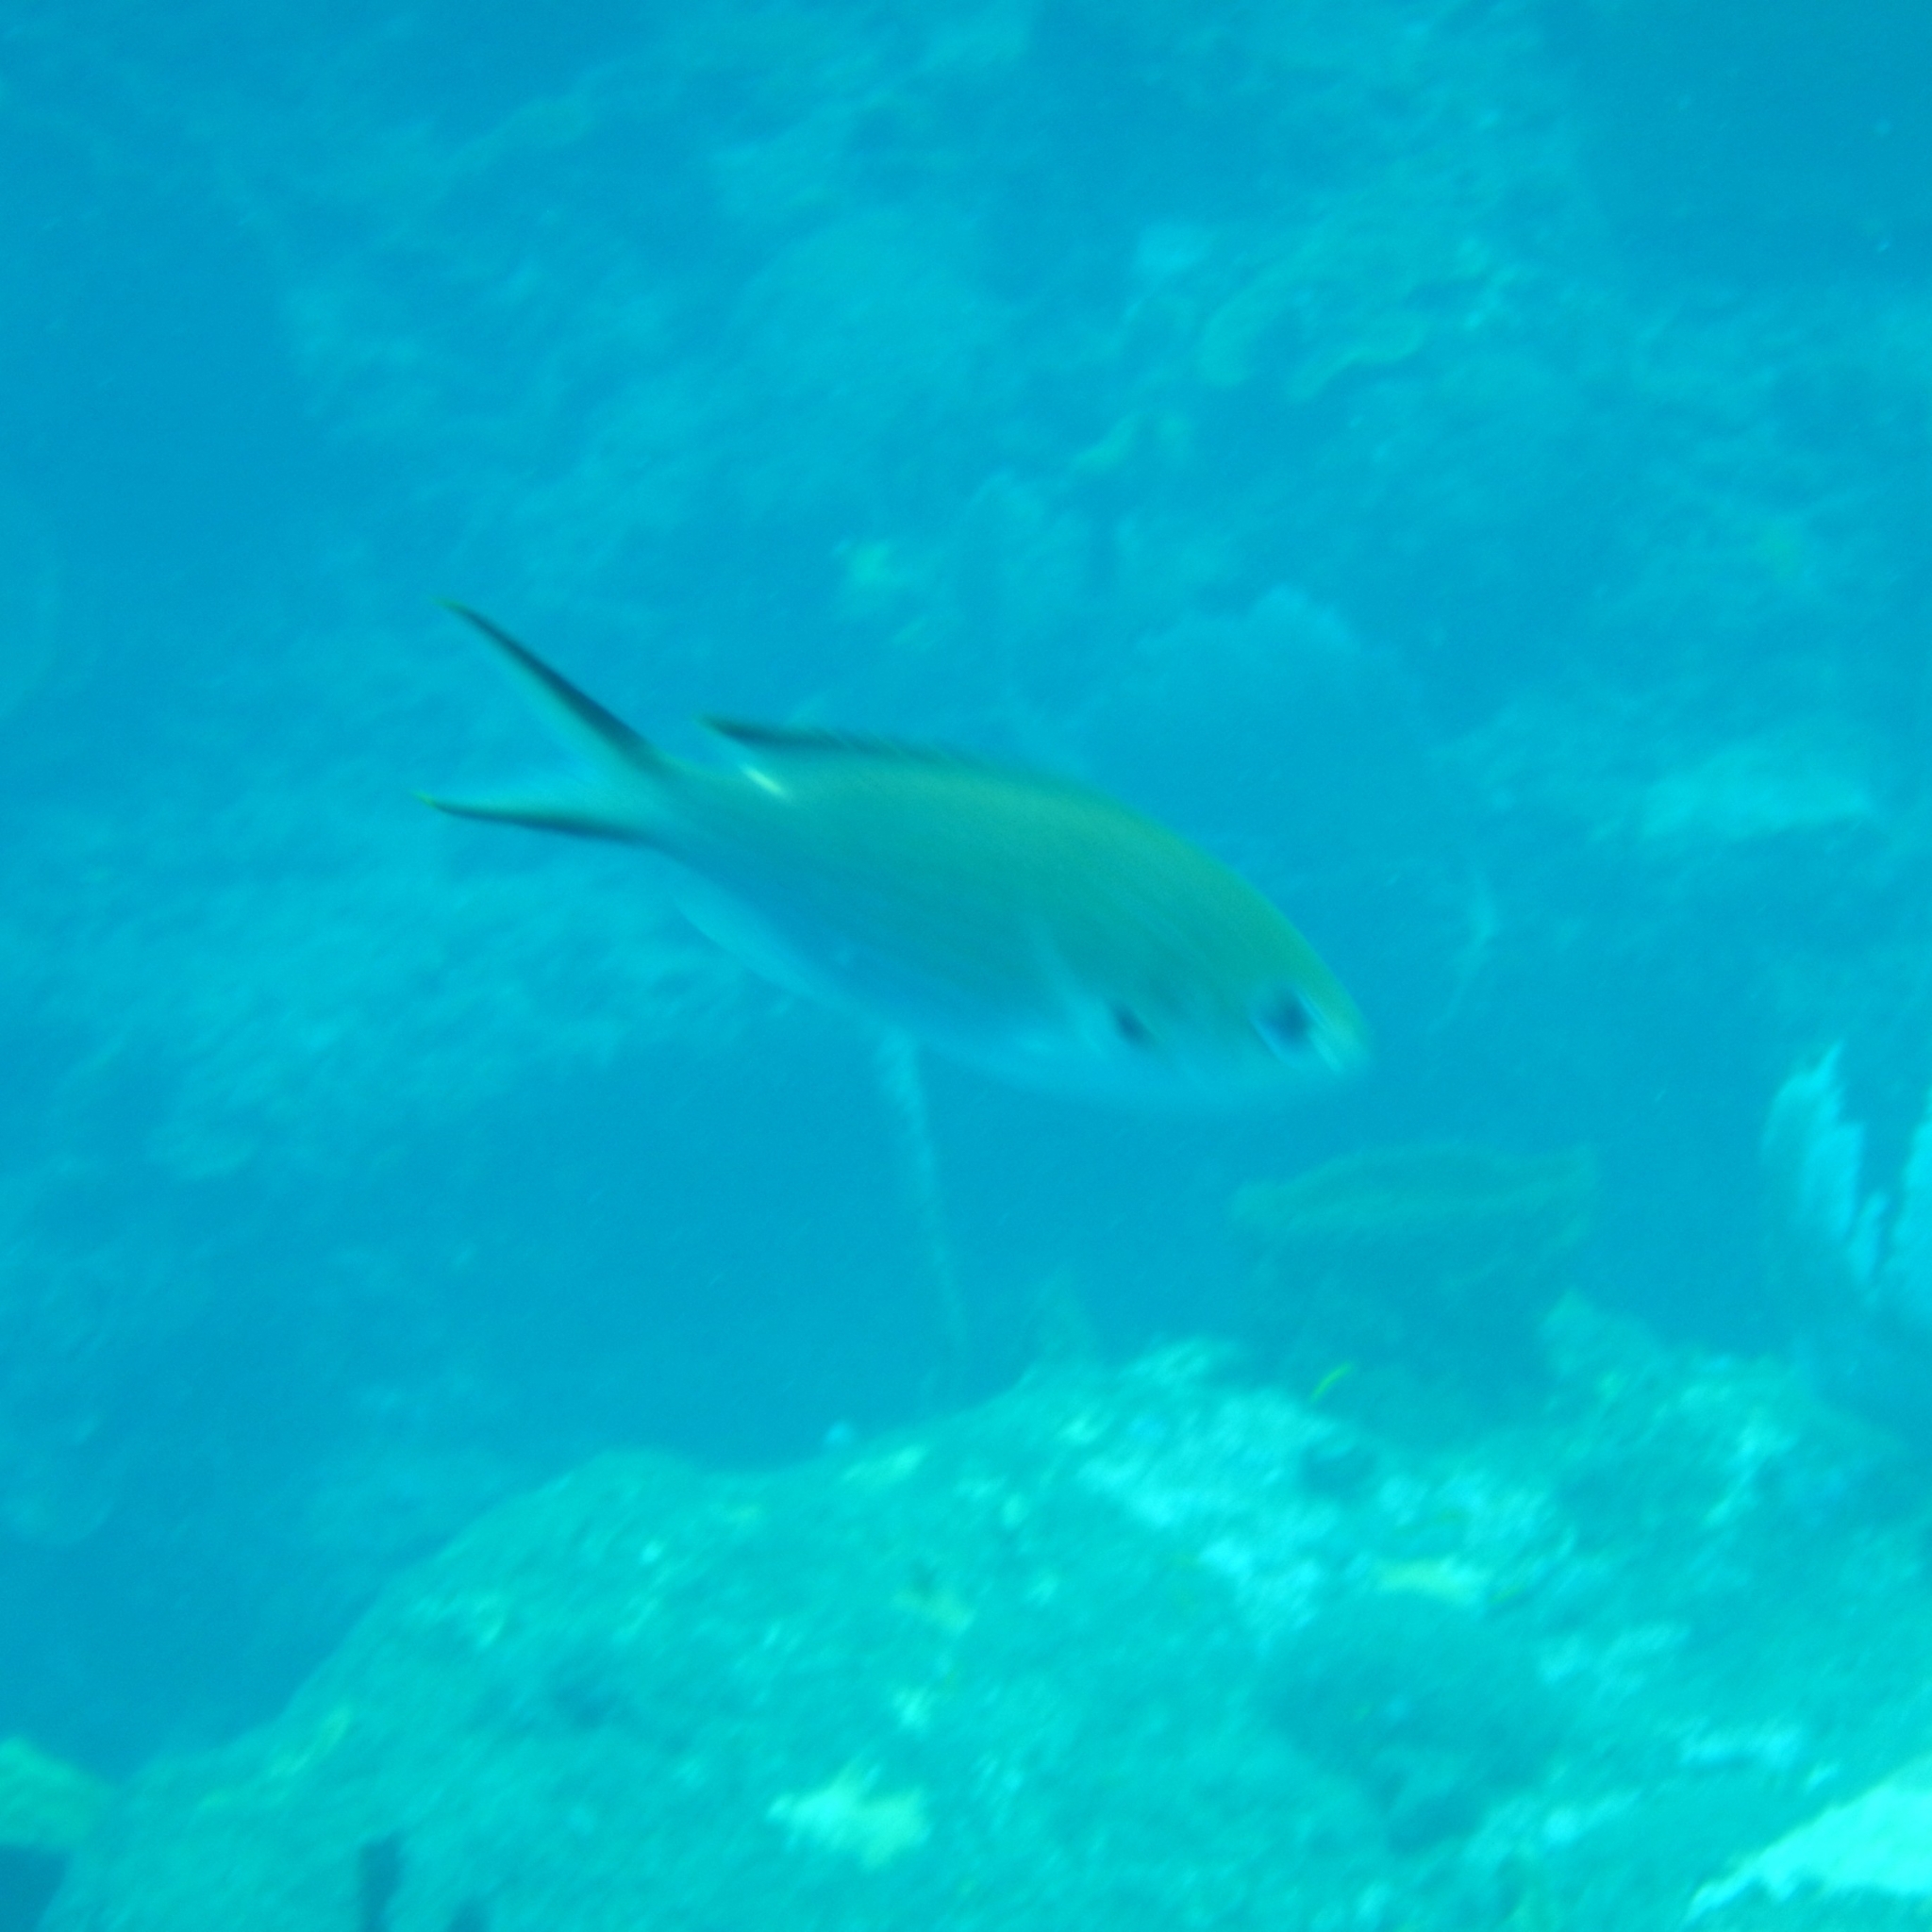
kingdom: Animalia
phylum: Chordata
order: Perciformes
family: Pomacentridae
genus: Chromis
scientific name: Chromis multilineata
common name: Brown chromis
